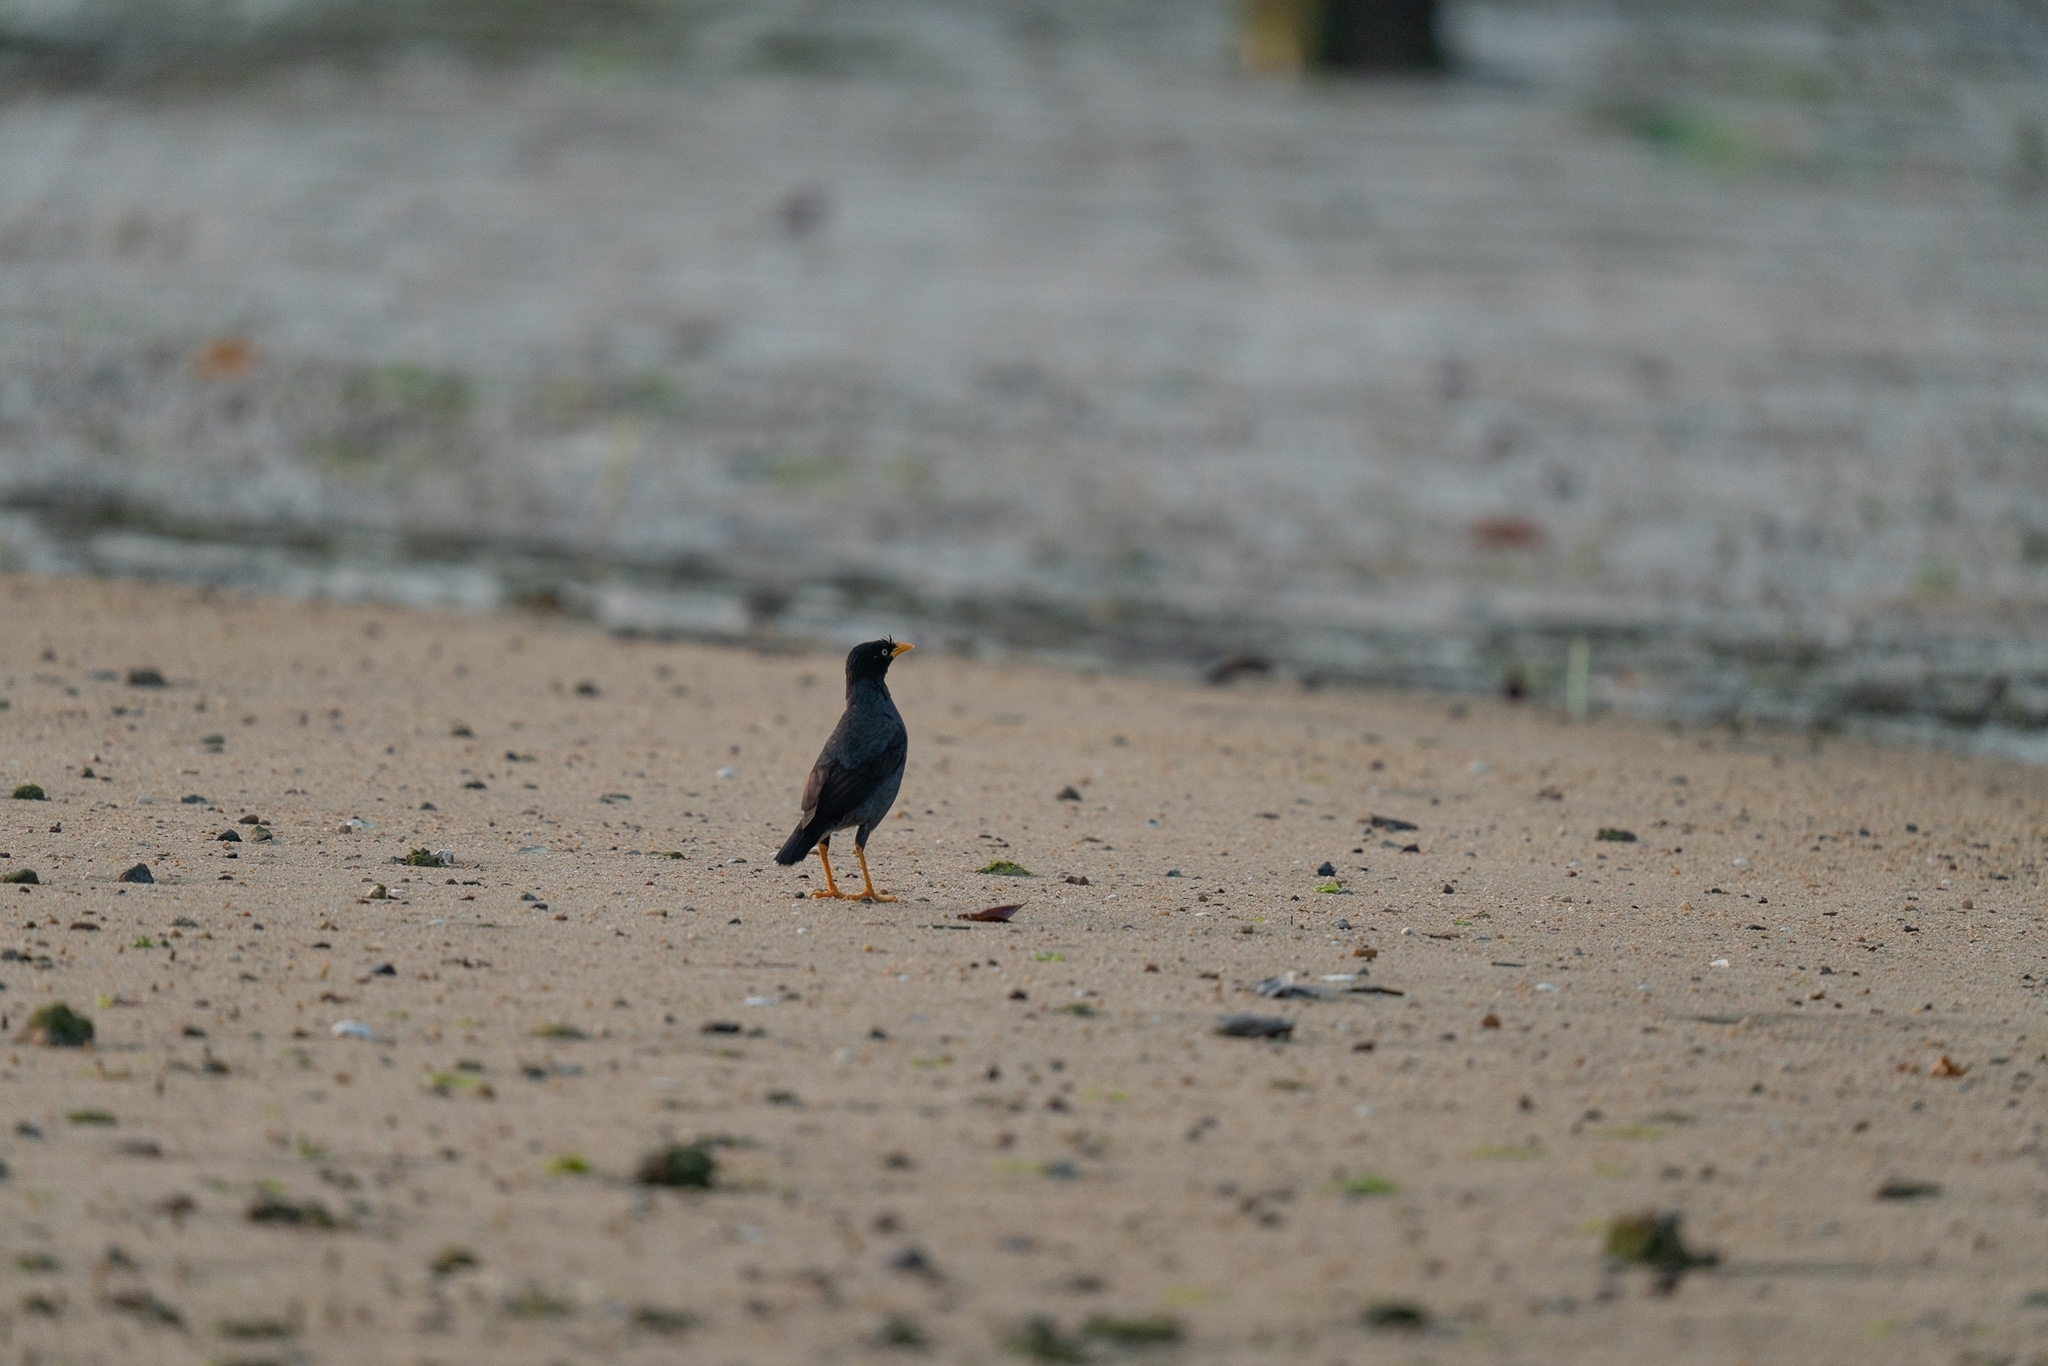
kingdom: Animalia
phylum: Chordata
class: Aves
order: Passeriformes
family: Sturnidae
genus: Acridotheres
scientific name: Acridotheres javanicus
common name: Javan myna
